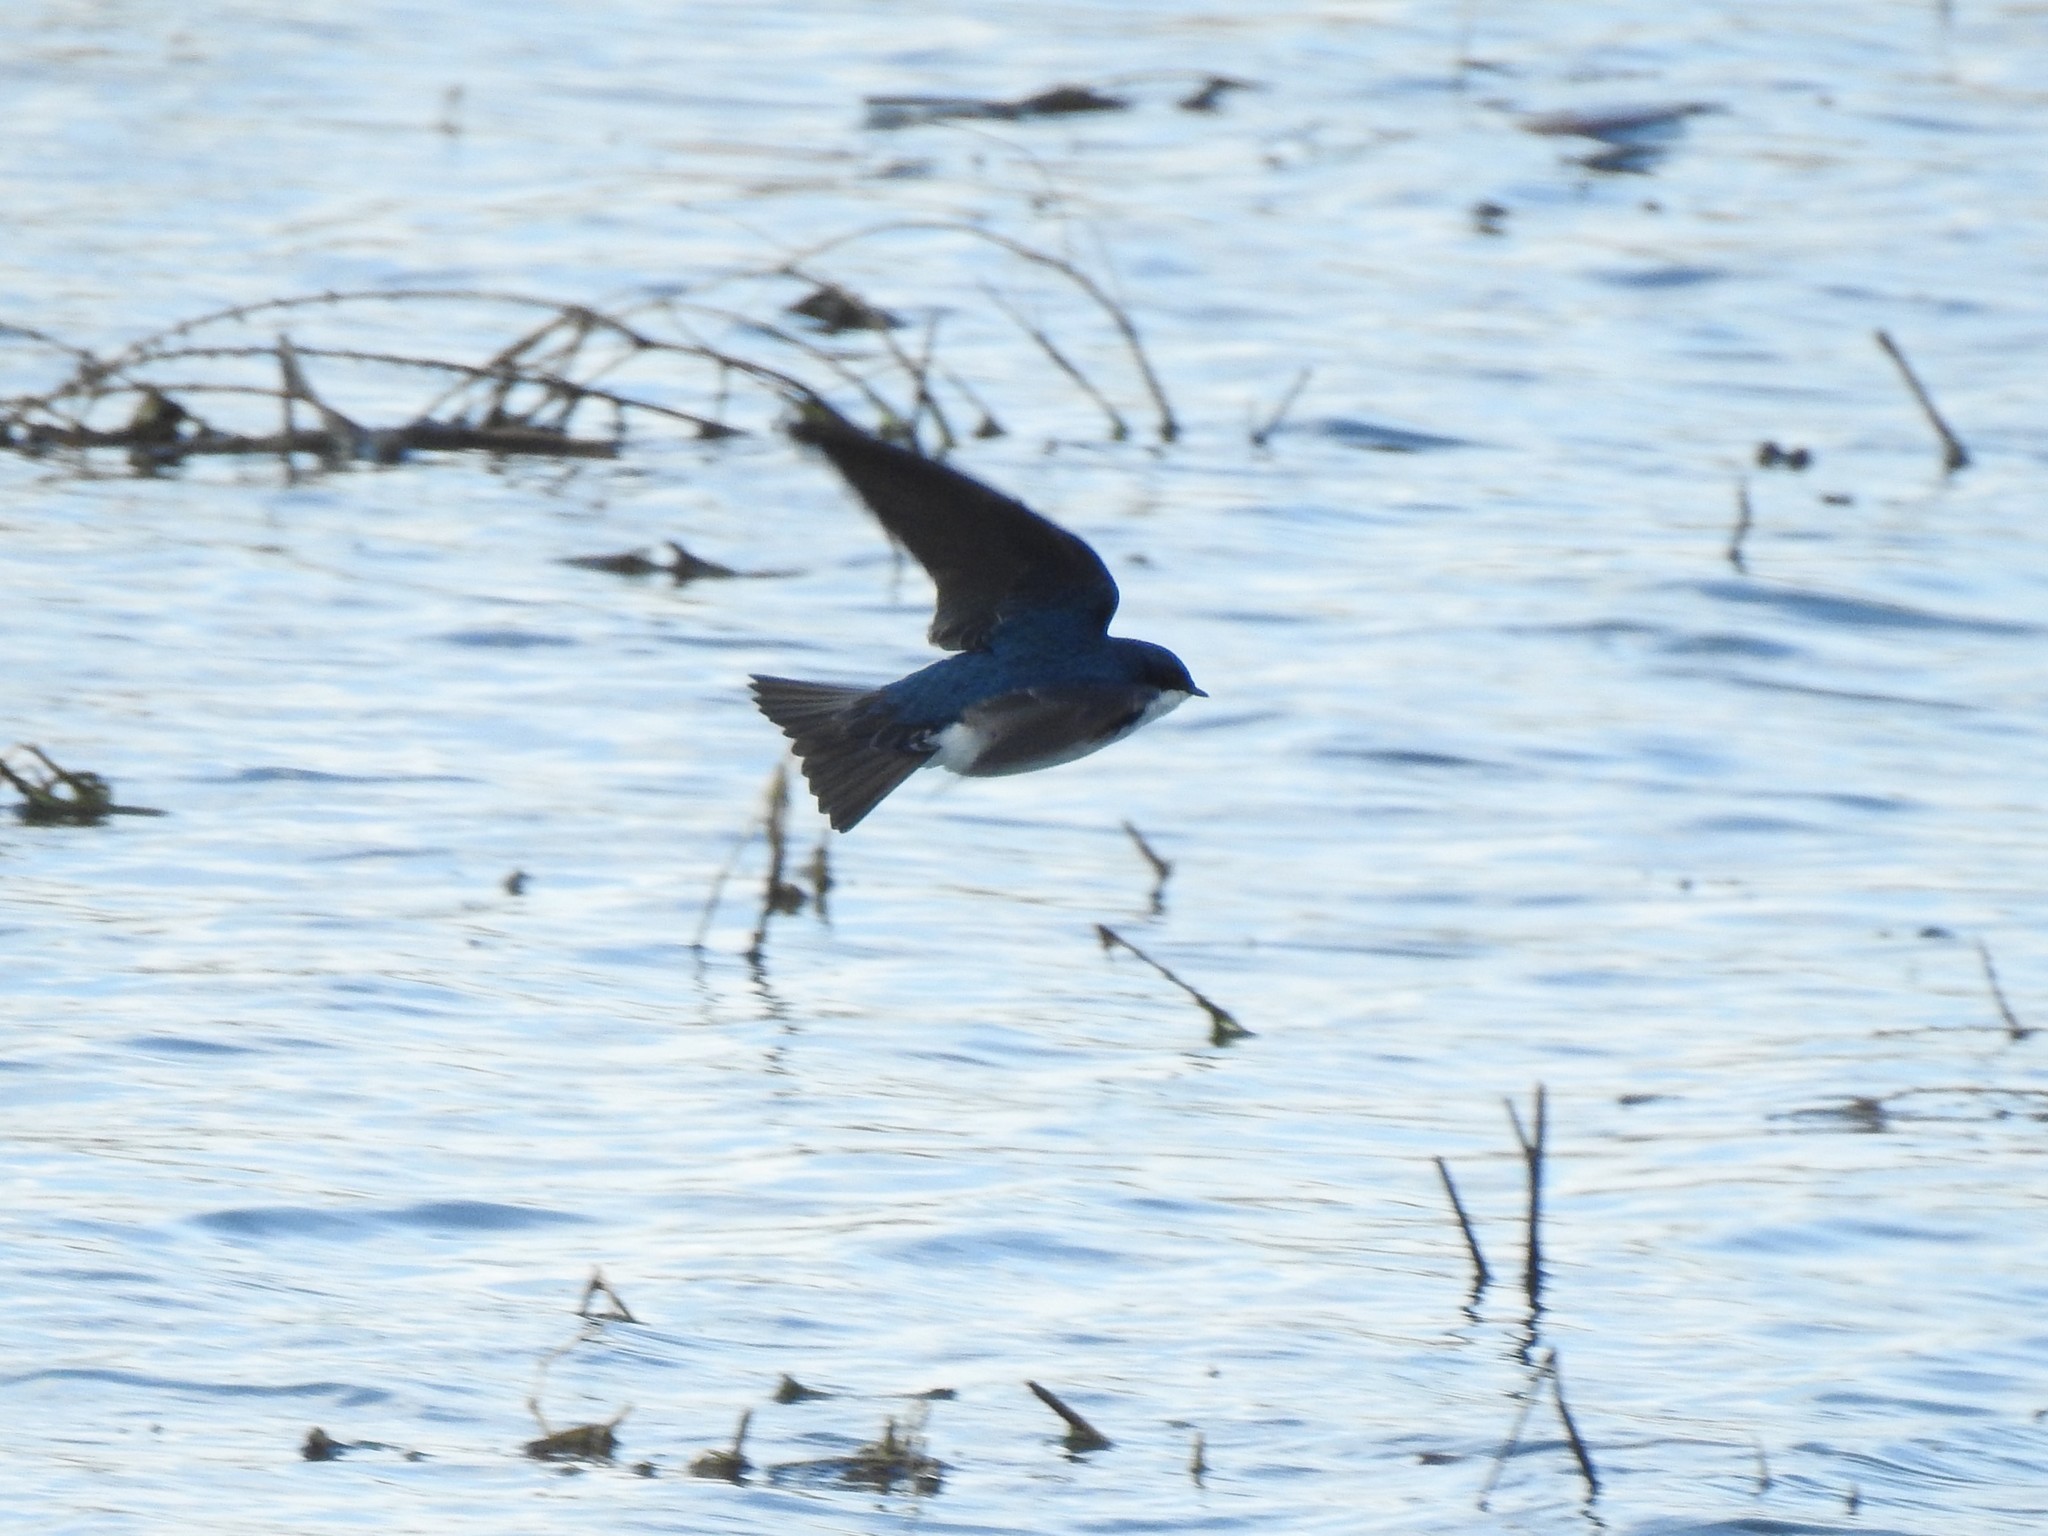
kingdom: Animalia
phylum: Chordata
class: Aves
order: Passeriformes
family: Hirundinidae
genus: Tachycineta
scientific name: Tachycineta bicolor
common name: Tree swallow
